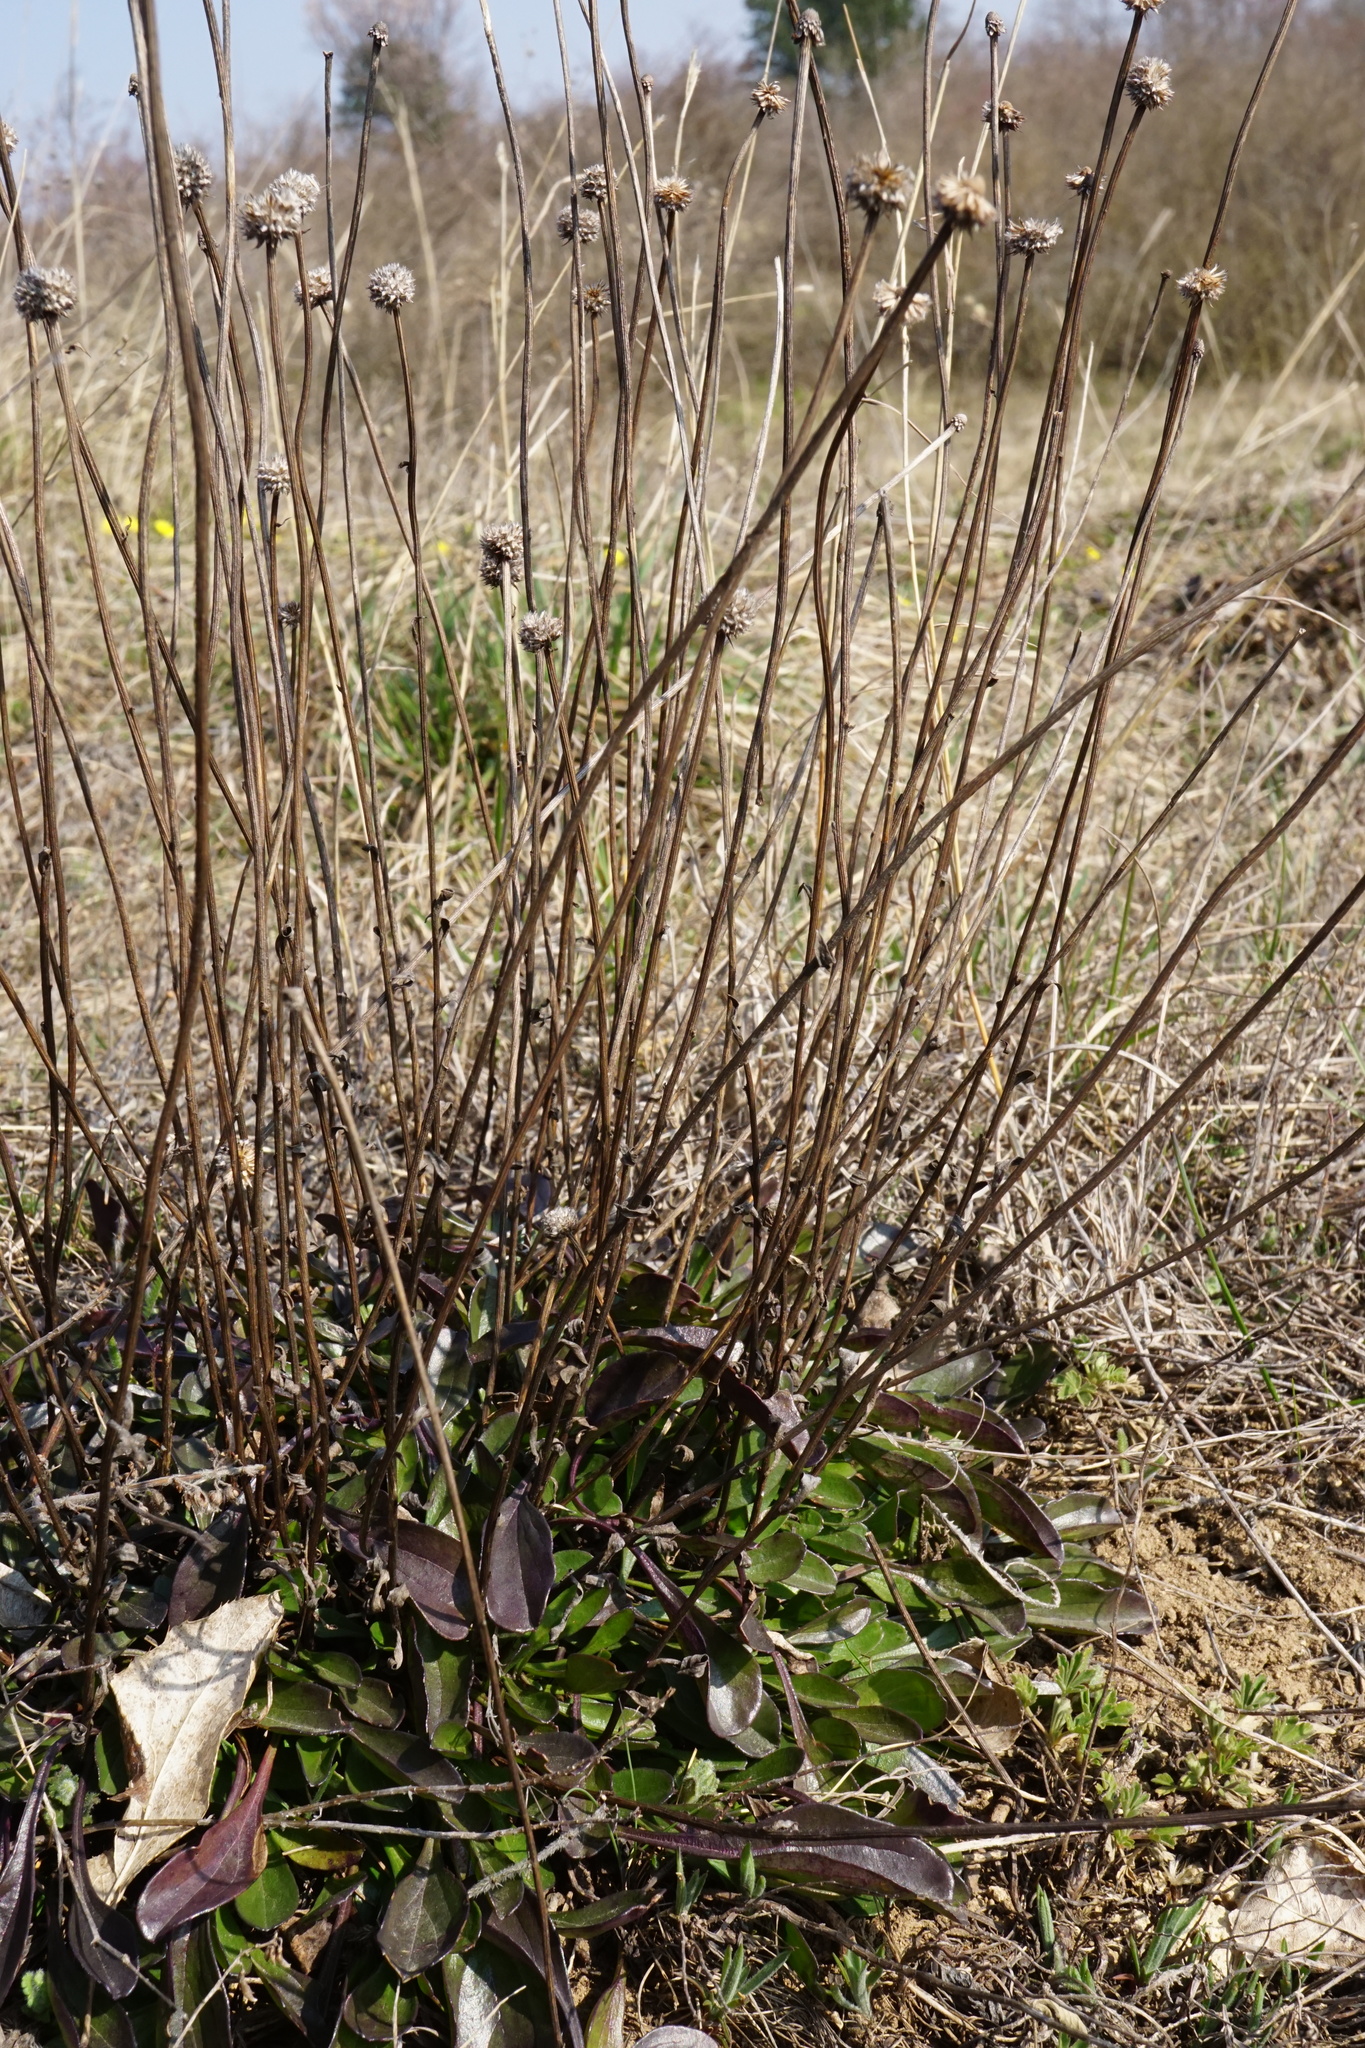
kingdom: Plantae
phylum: Tracheophyta
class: Magnoliopsida
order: Lamiales
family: Plantaginaceae
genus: Globularia
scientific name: Globularia bisnagarica
